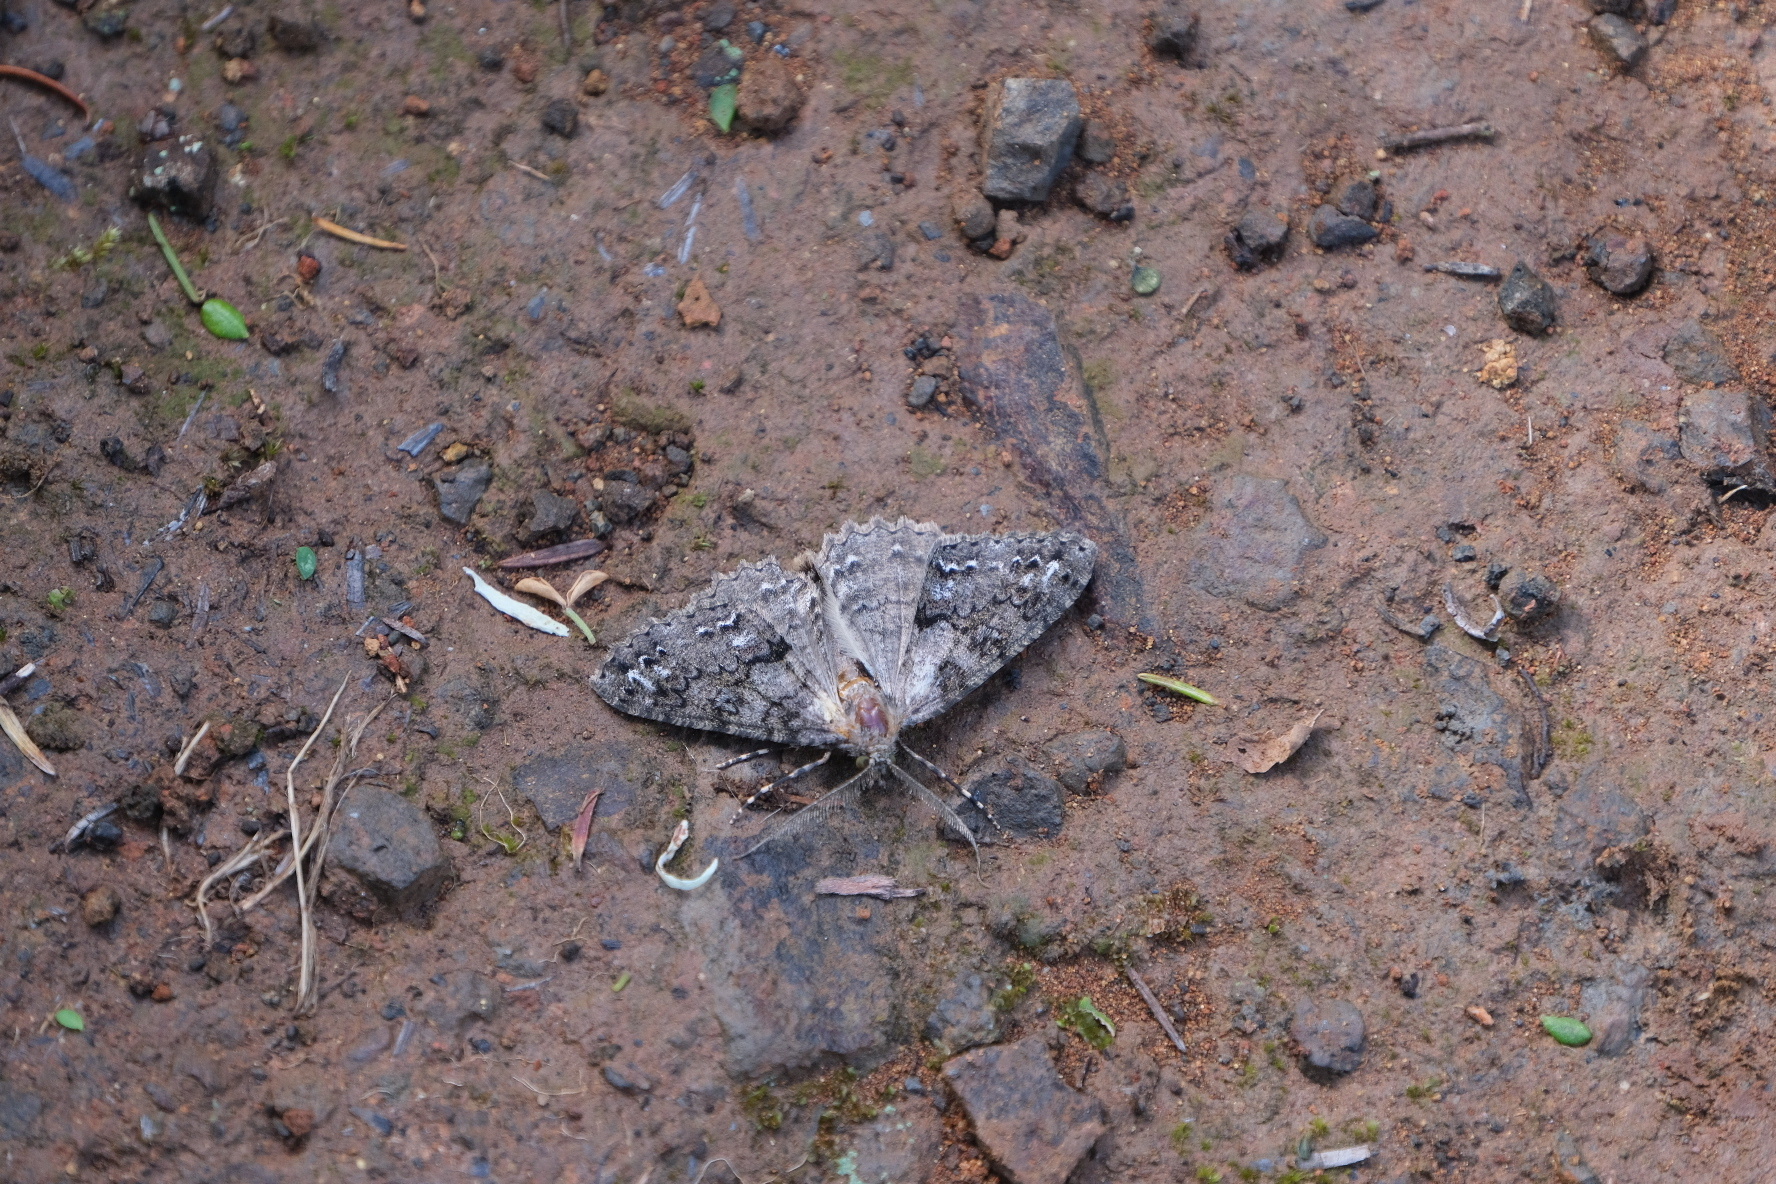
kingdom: Animalia
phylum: Arthropoda
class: Insecta
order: Lepidoptera
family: Geometridae
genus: Ascotis
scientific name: Ascotis fortunata
